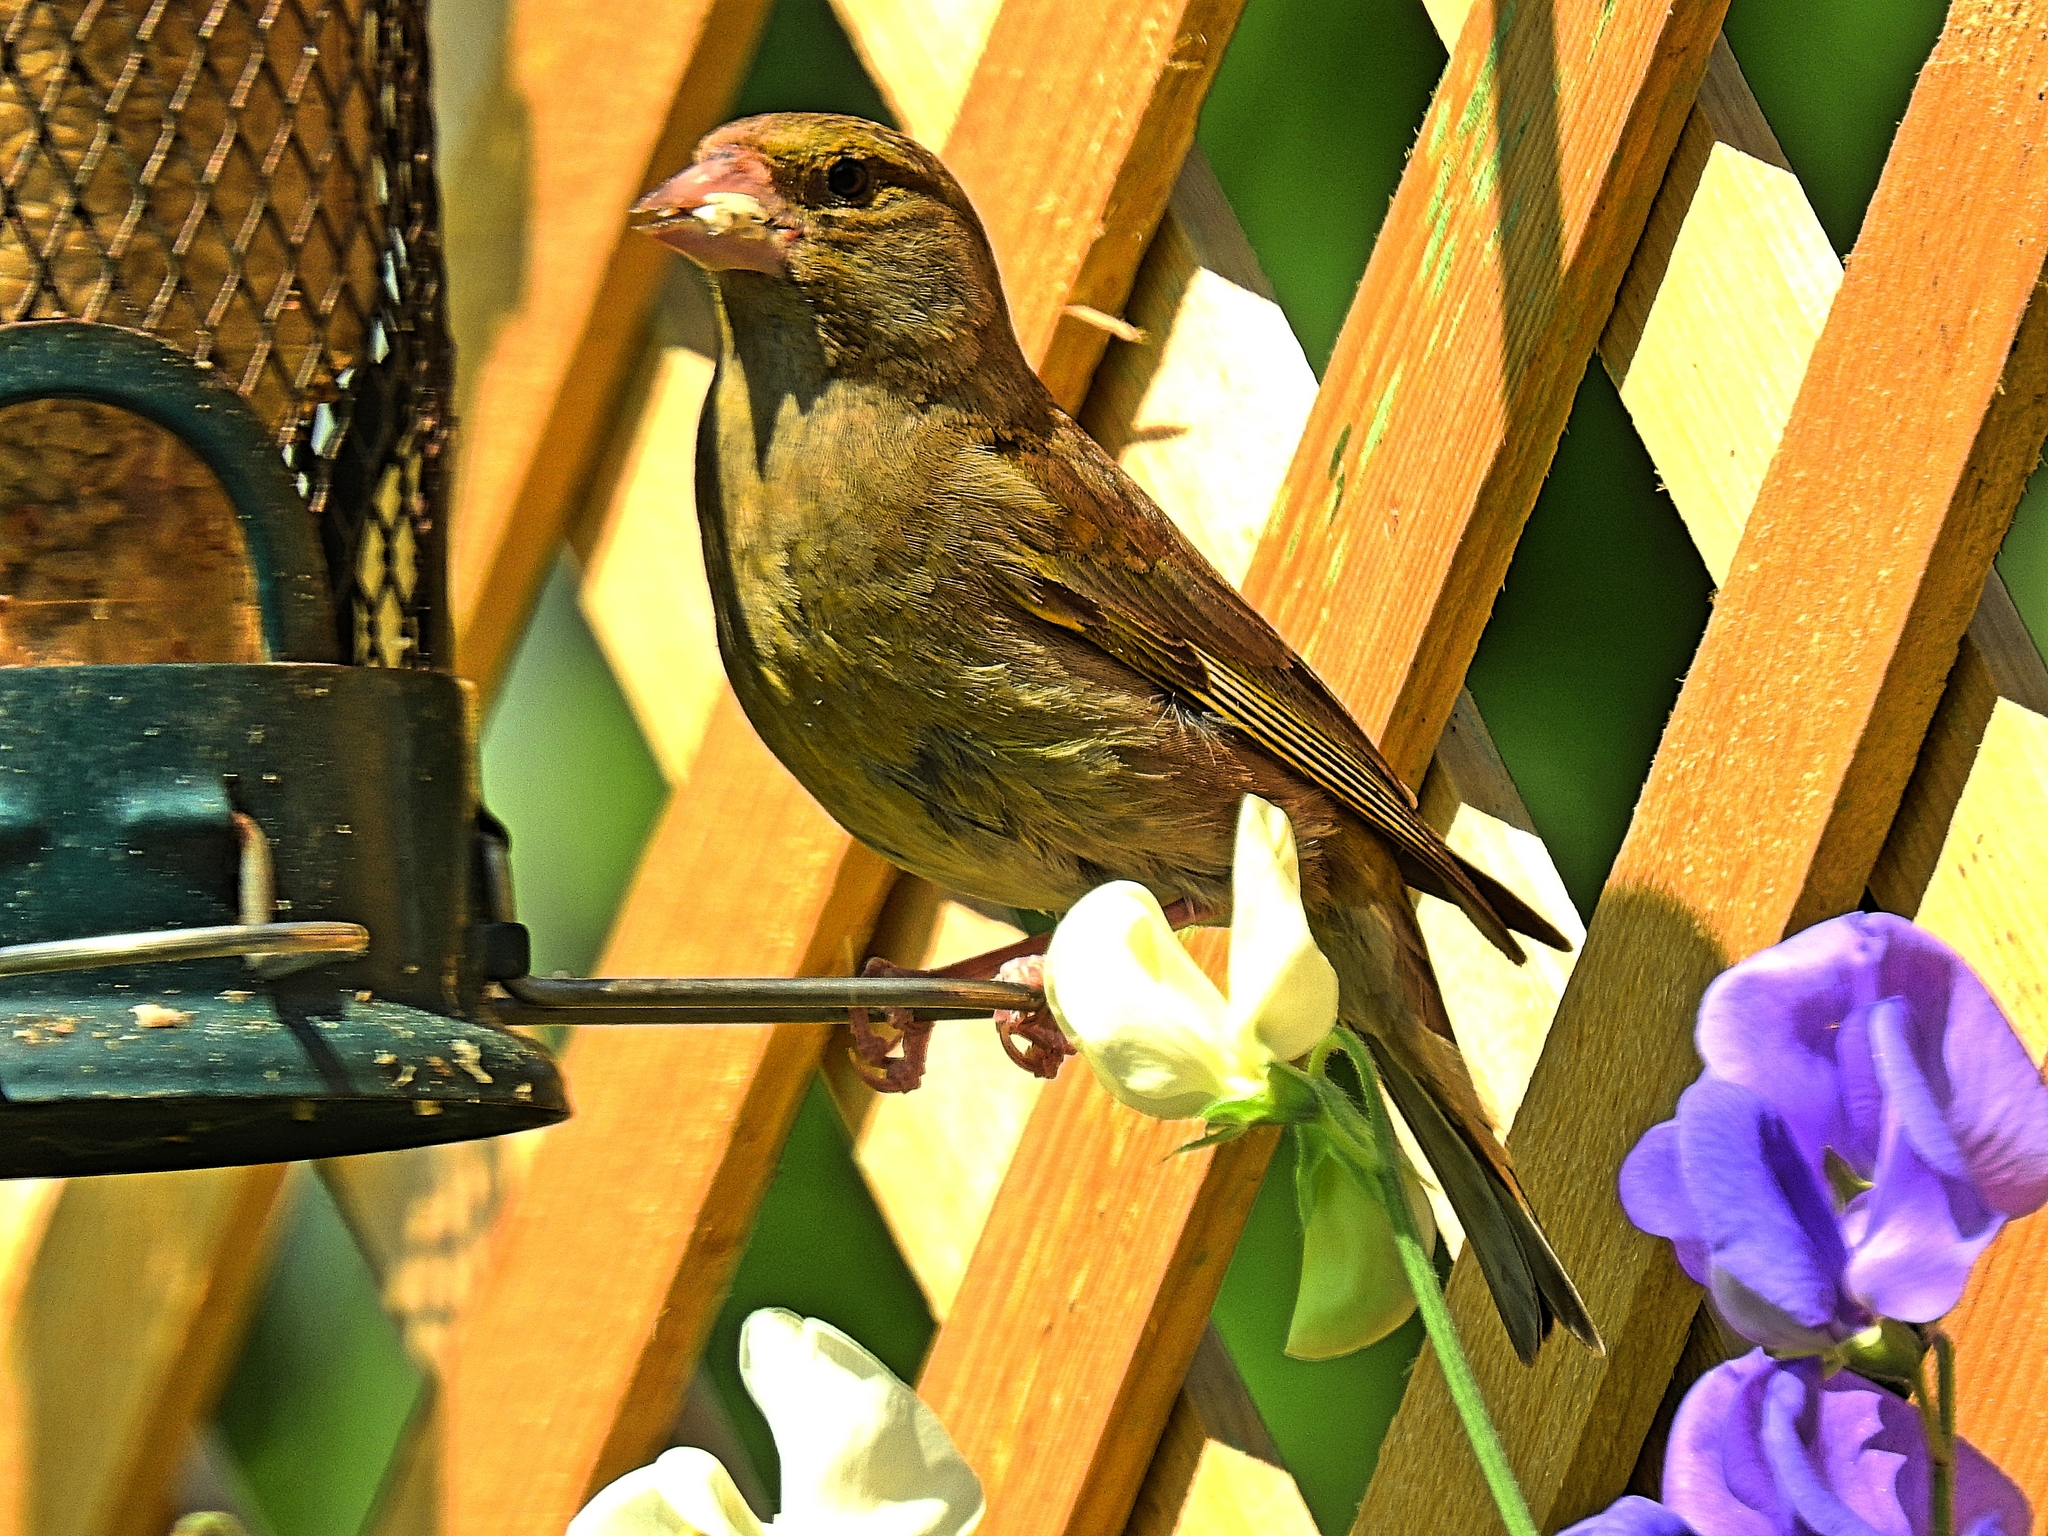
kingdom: Plantae
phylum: Tracheophyta
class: Liliopsida
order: Poales
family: Poaceae
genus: Chloris
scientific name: Chloris chloris
